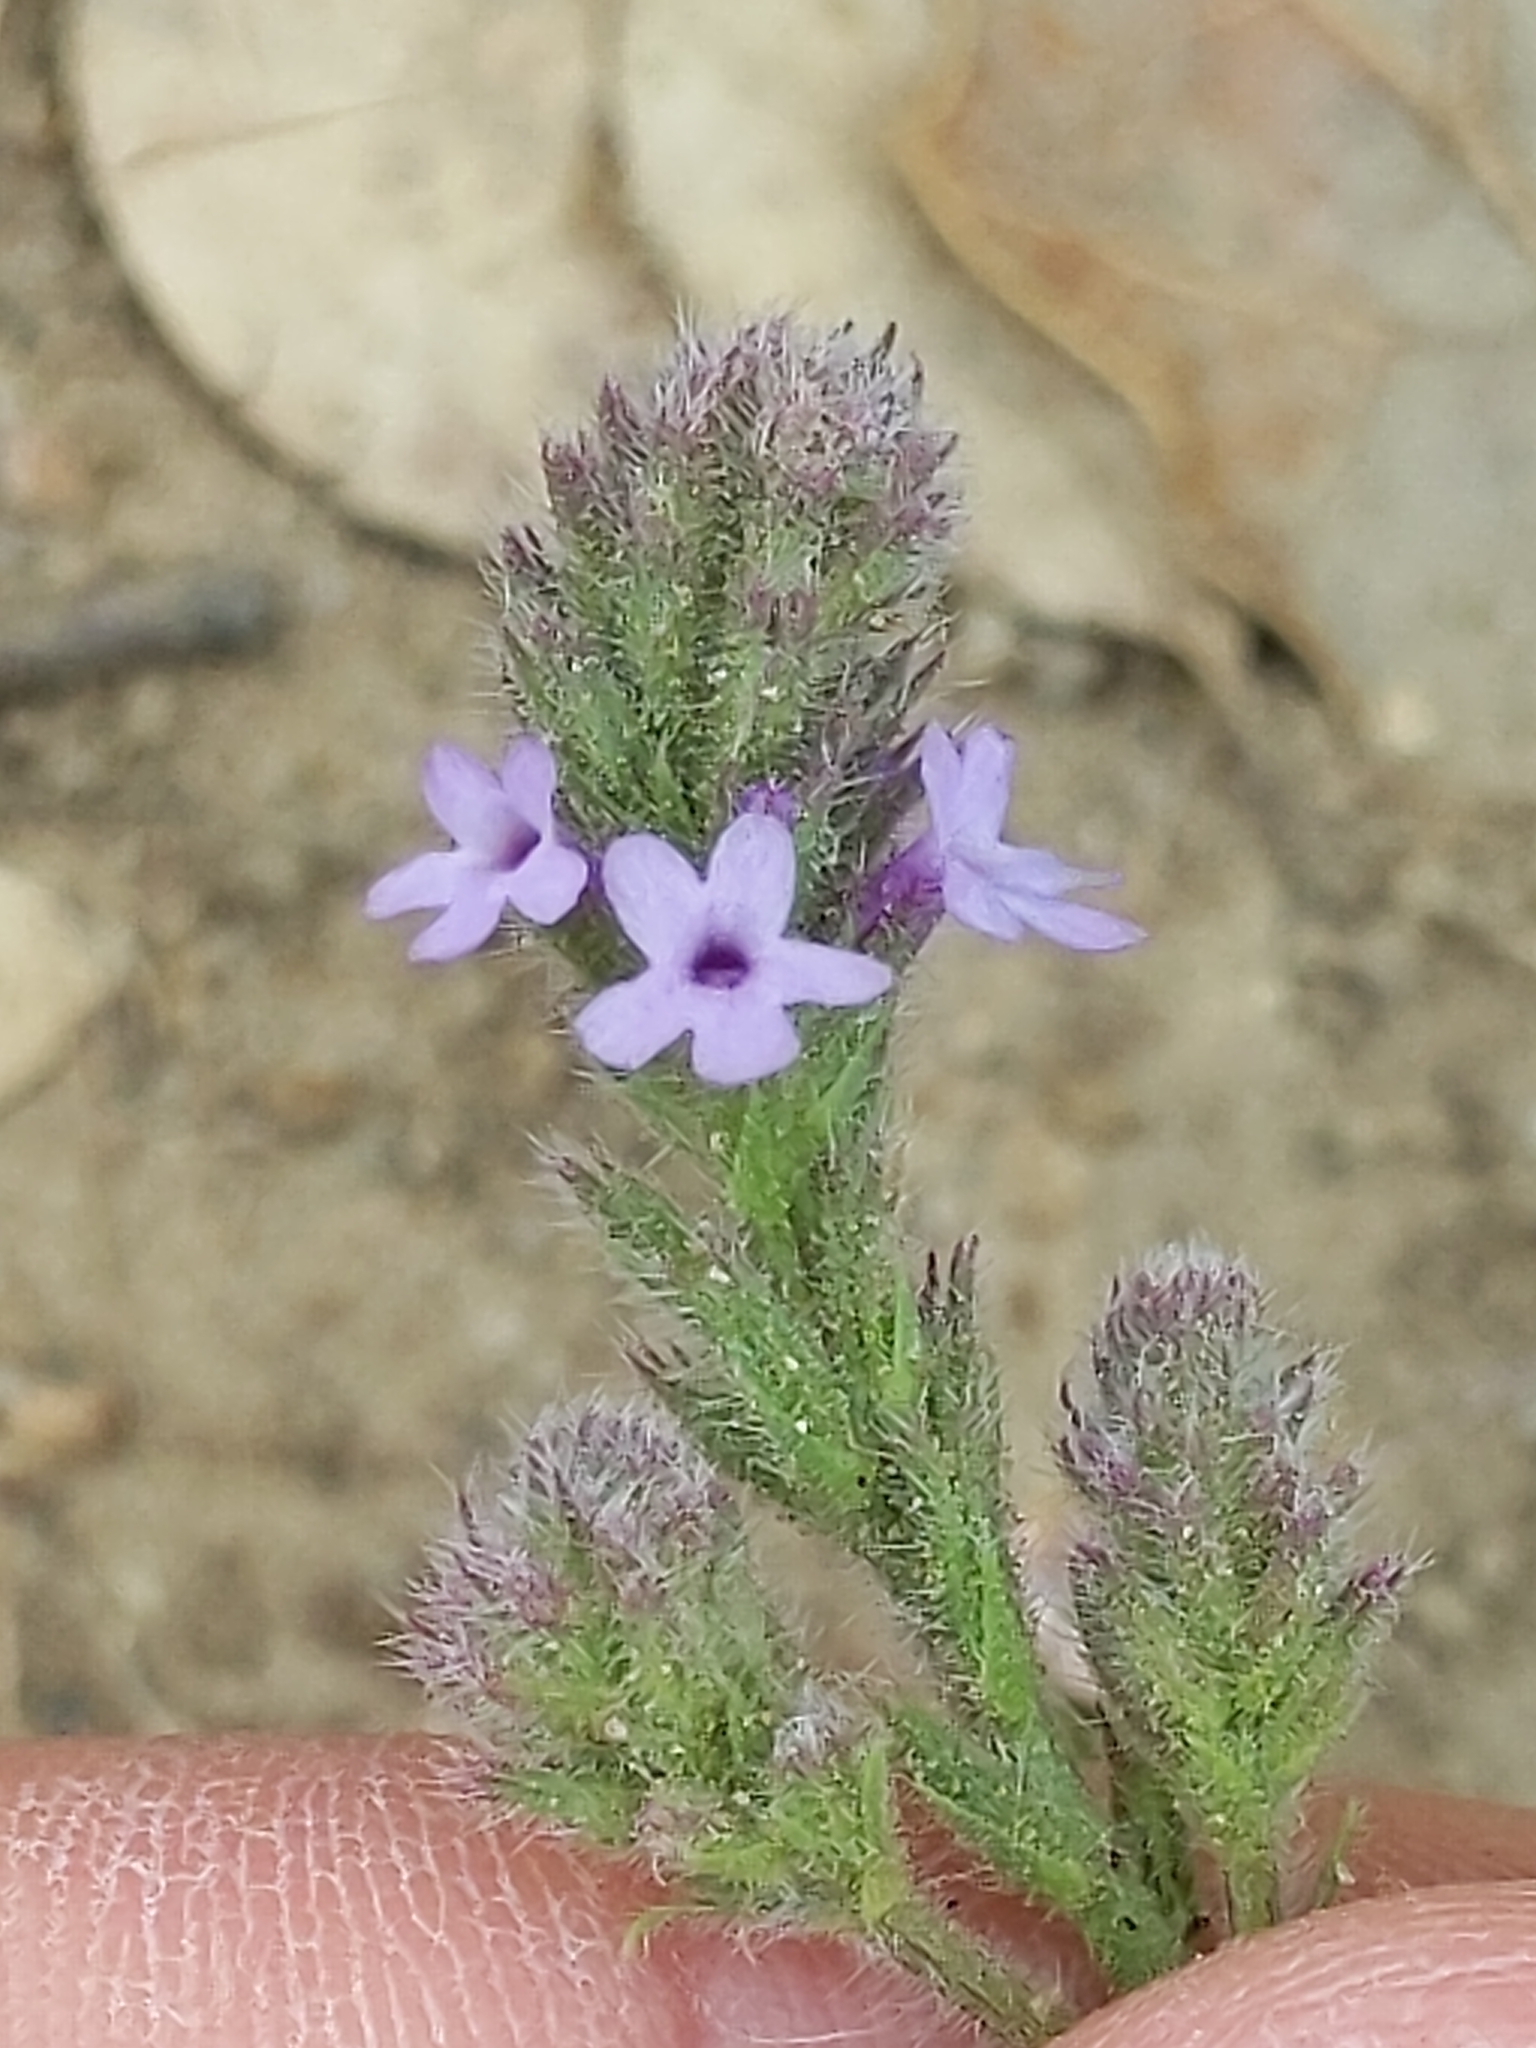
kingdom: Plantae
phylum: Tracheophyta
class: Magnoliopsida
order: Lamiales
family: Verbenaceae
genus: Verbena
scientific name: Verbena lasiostachys
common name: Vervain
